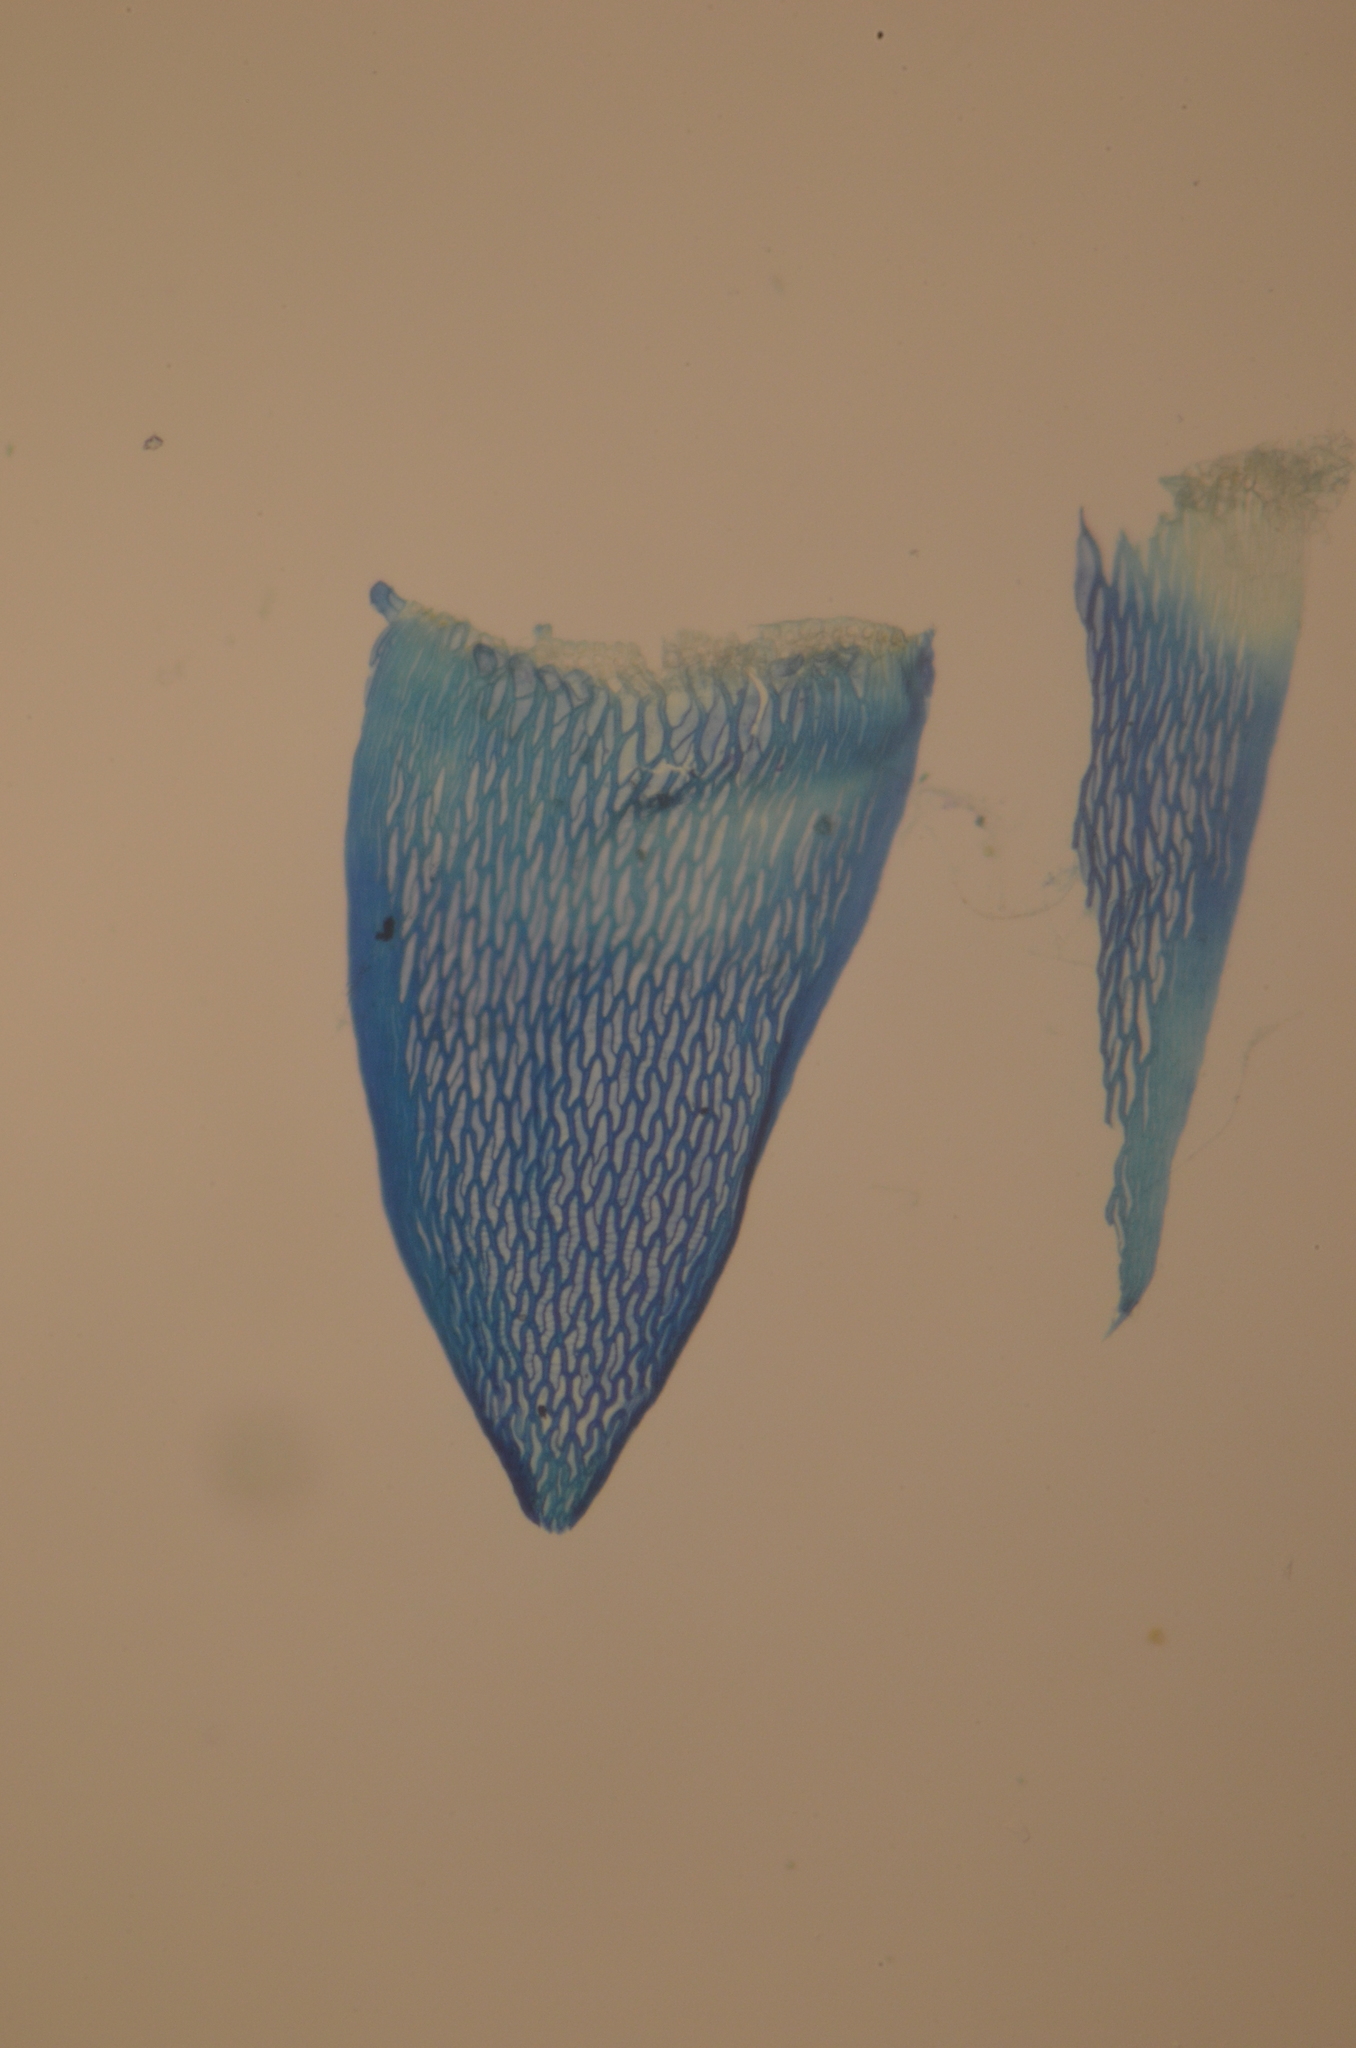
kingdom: Plantae
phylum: Bryophyta
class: Sphagnopsida
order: Sphagnales
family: Sphagnaceae
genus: Sphagnum
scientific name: Sphagnum capillifolium
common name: Small red peat moss
